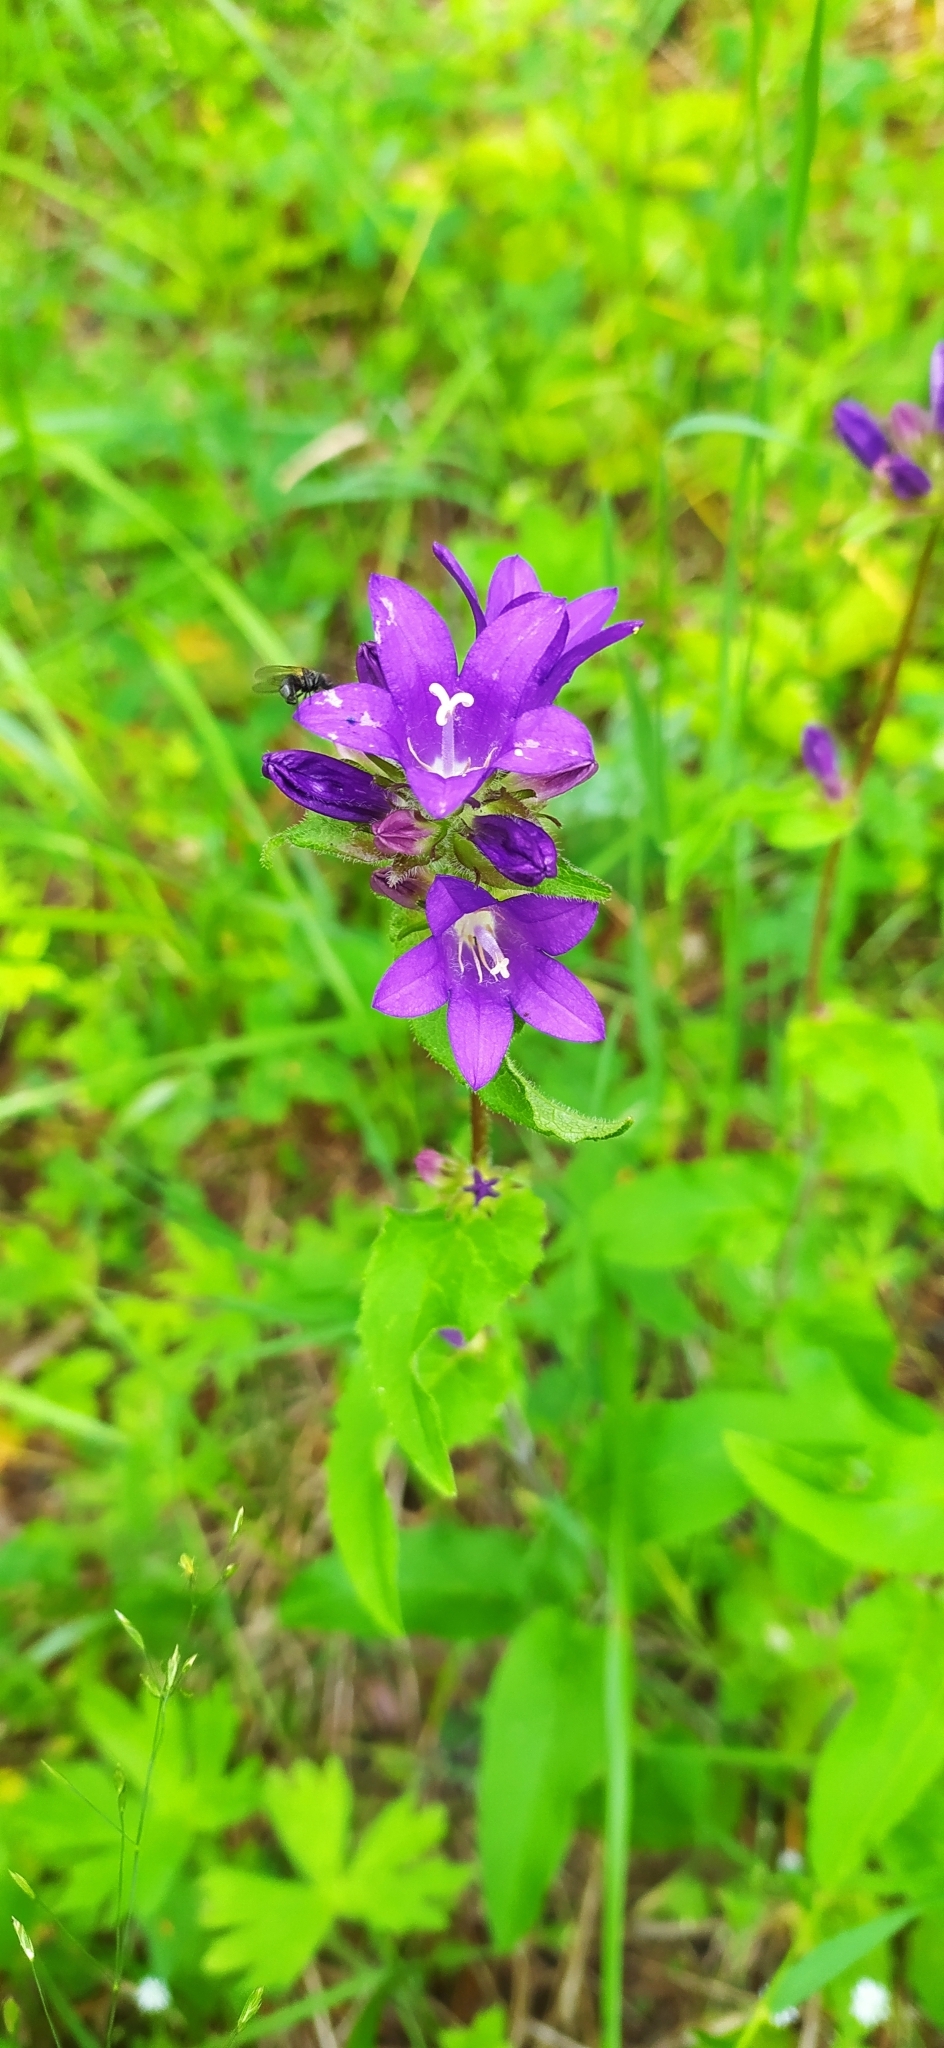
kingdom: Plantae
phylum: Tracheophyta
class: Magnoliopsida
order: Asterales
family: Campanulaceae
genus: Campanula
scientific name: Campanula glomerata
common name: Clustered bellflower
